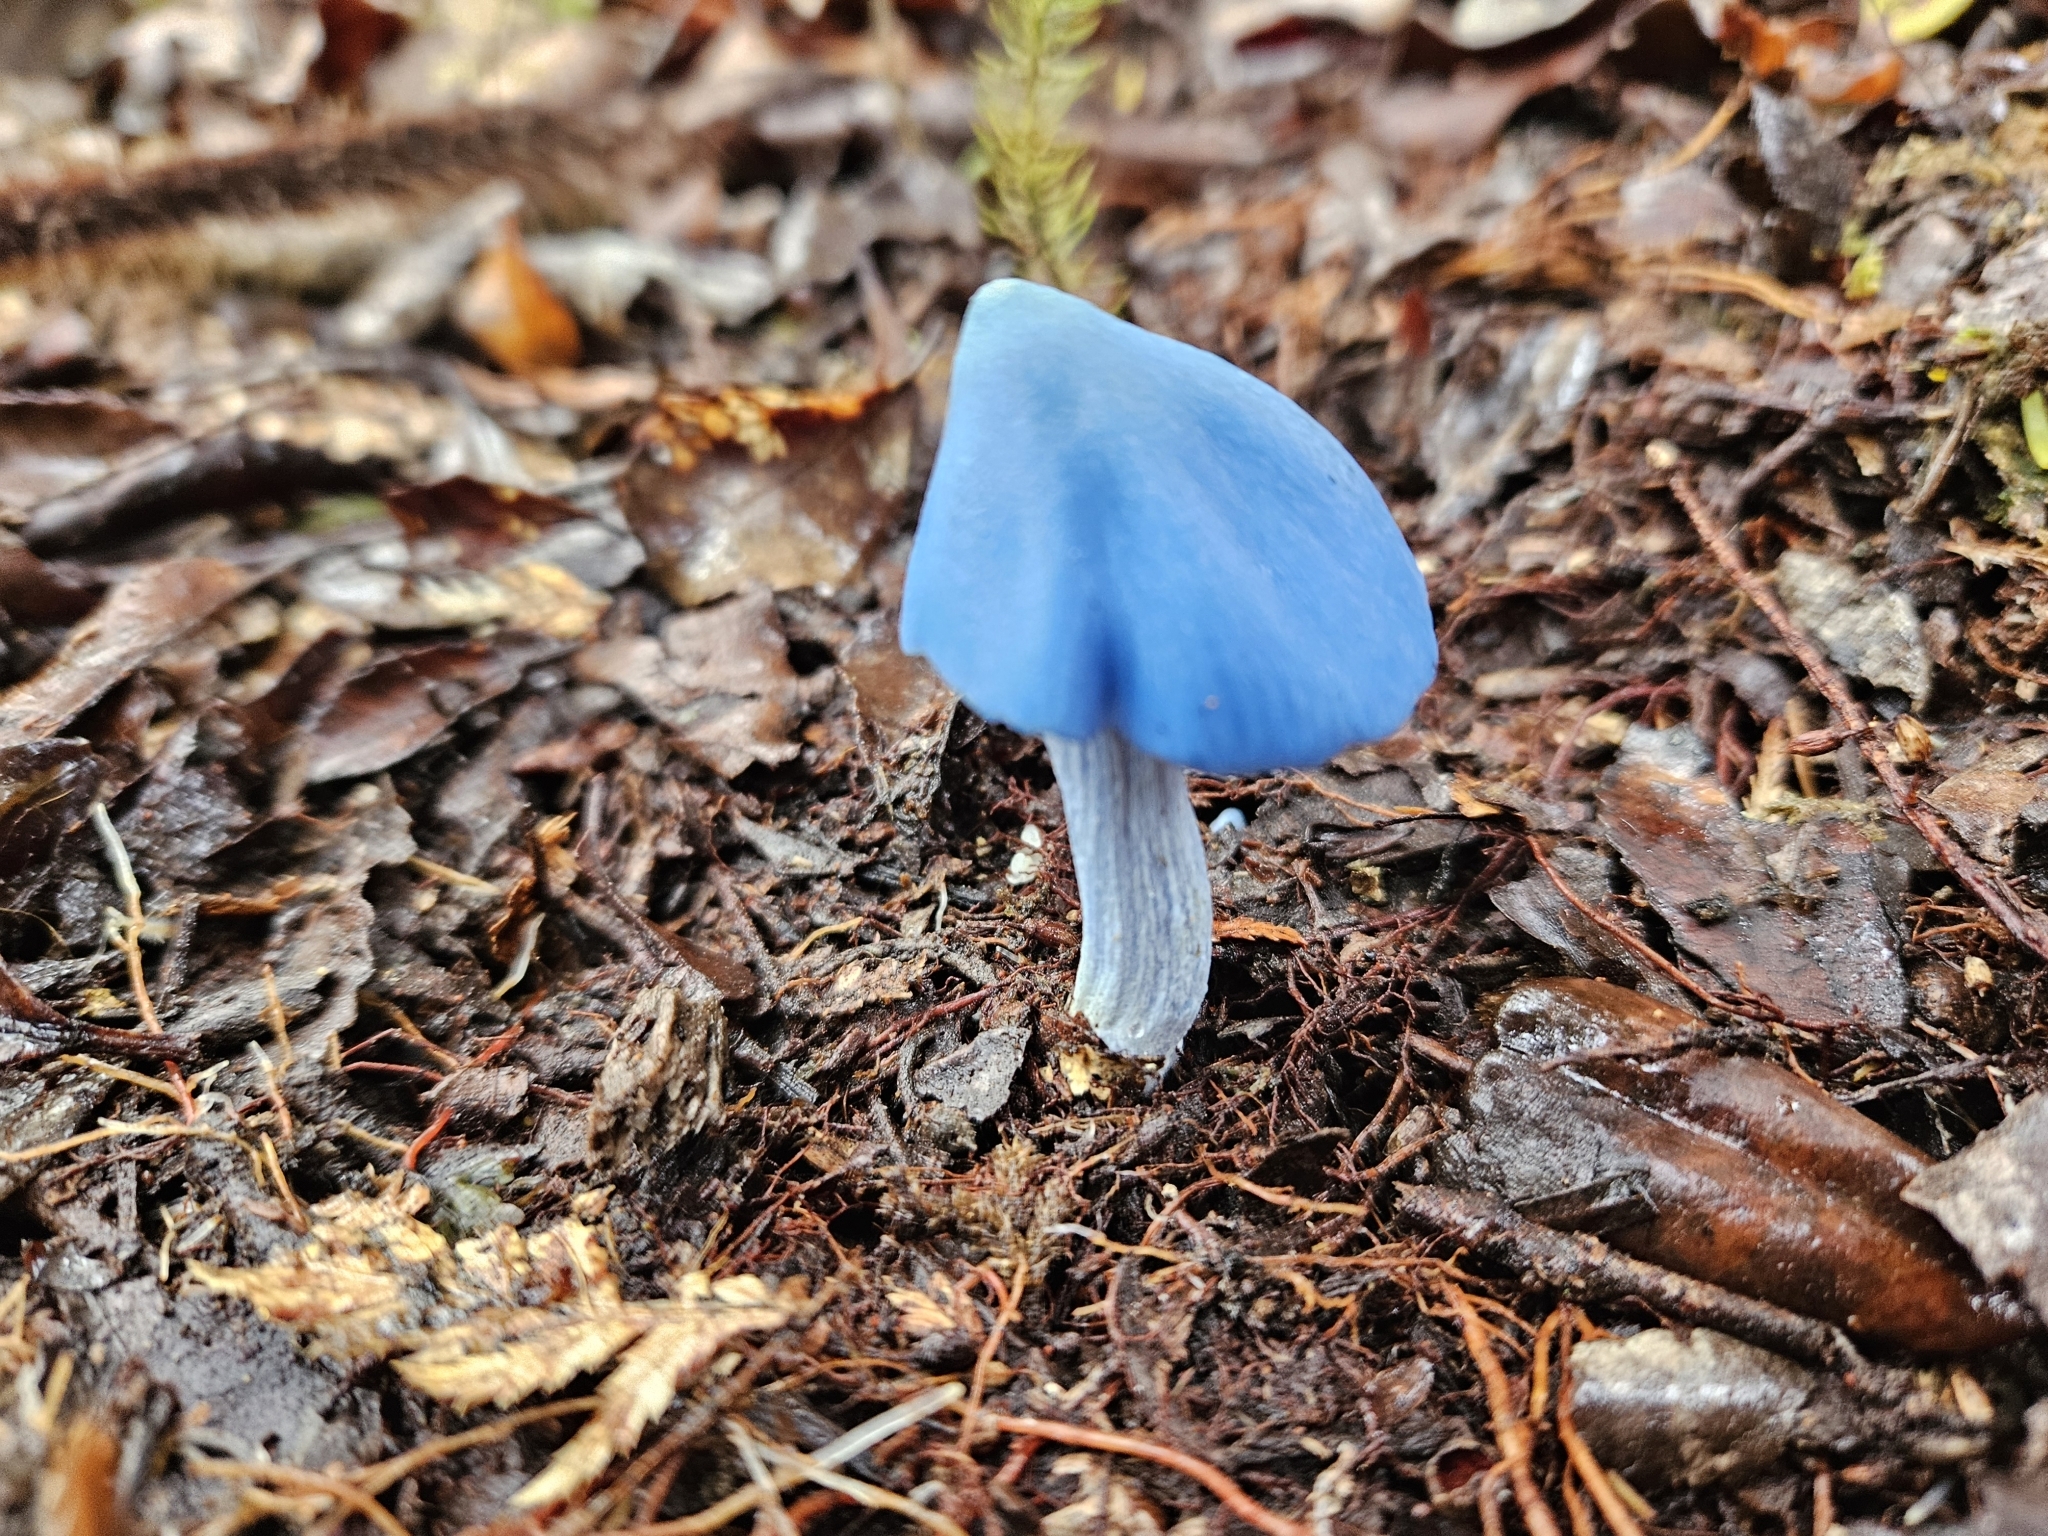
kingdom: Fungi
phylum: Basidiomycota
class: Agaricomycetes
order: Agaricales
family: Entolomataceae
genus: Entoloma
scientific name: Entoloma hochstetteri
